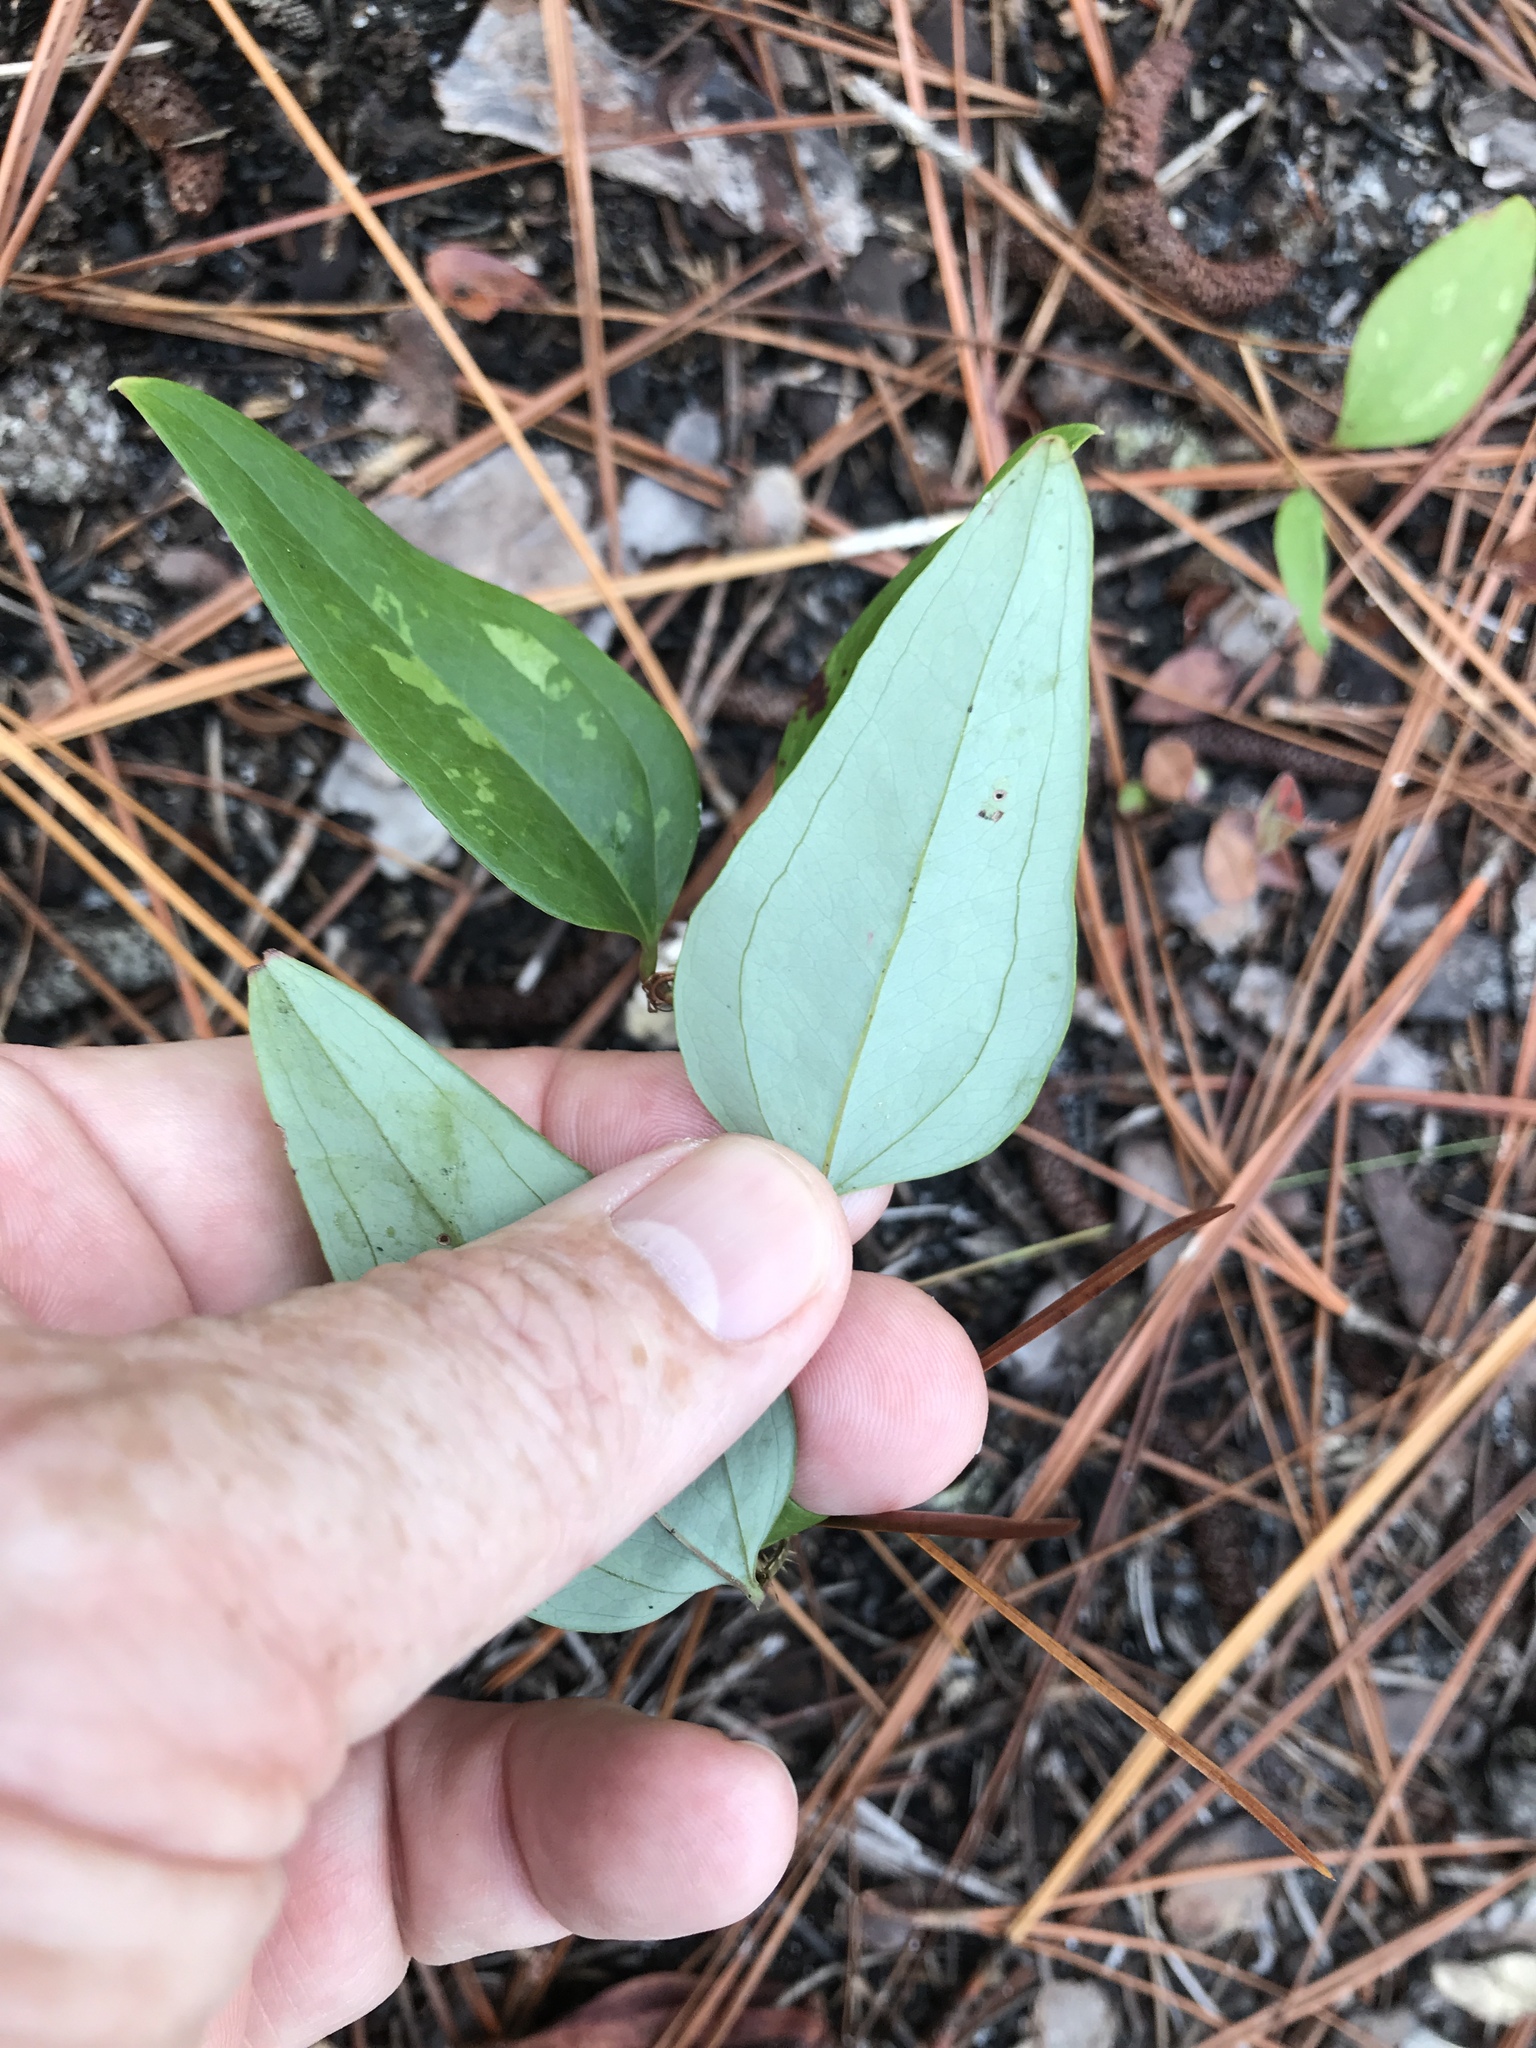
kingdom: Plantae
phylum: Tracheophyta
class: Liliopsida
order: Liliales
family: Smilacaceae
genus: Smilax
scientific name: Smilax glauca
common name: Cat greenbrier
